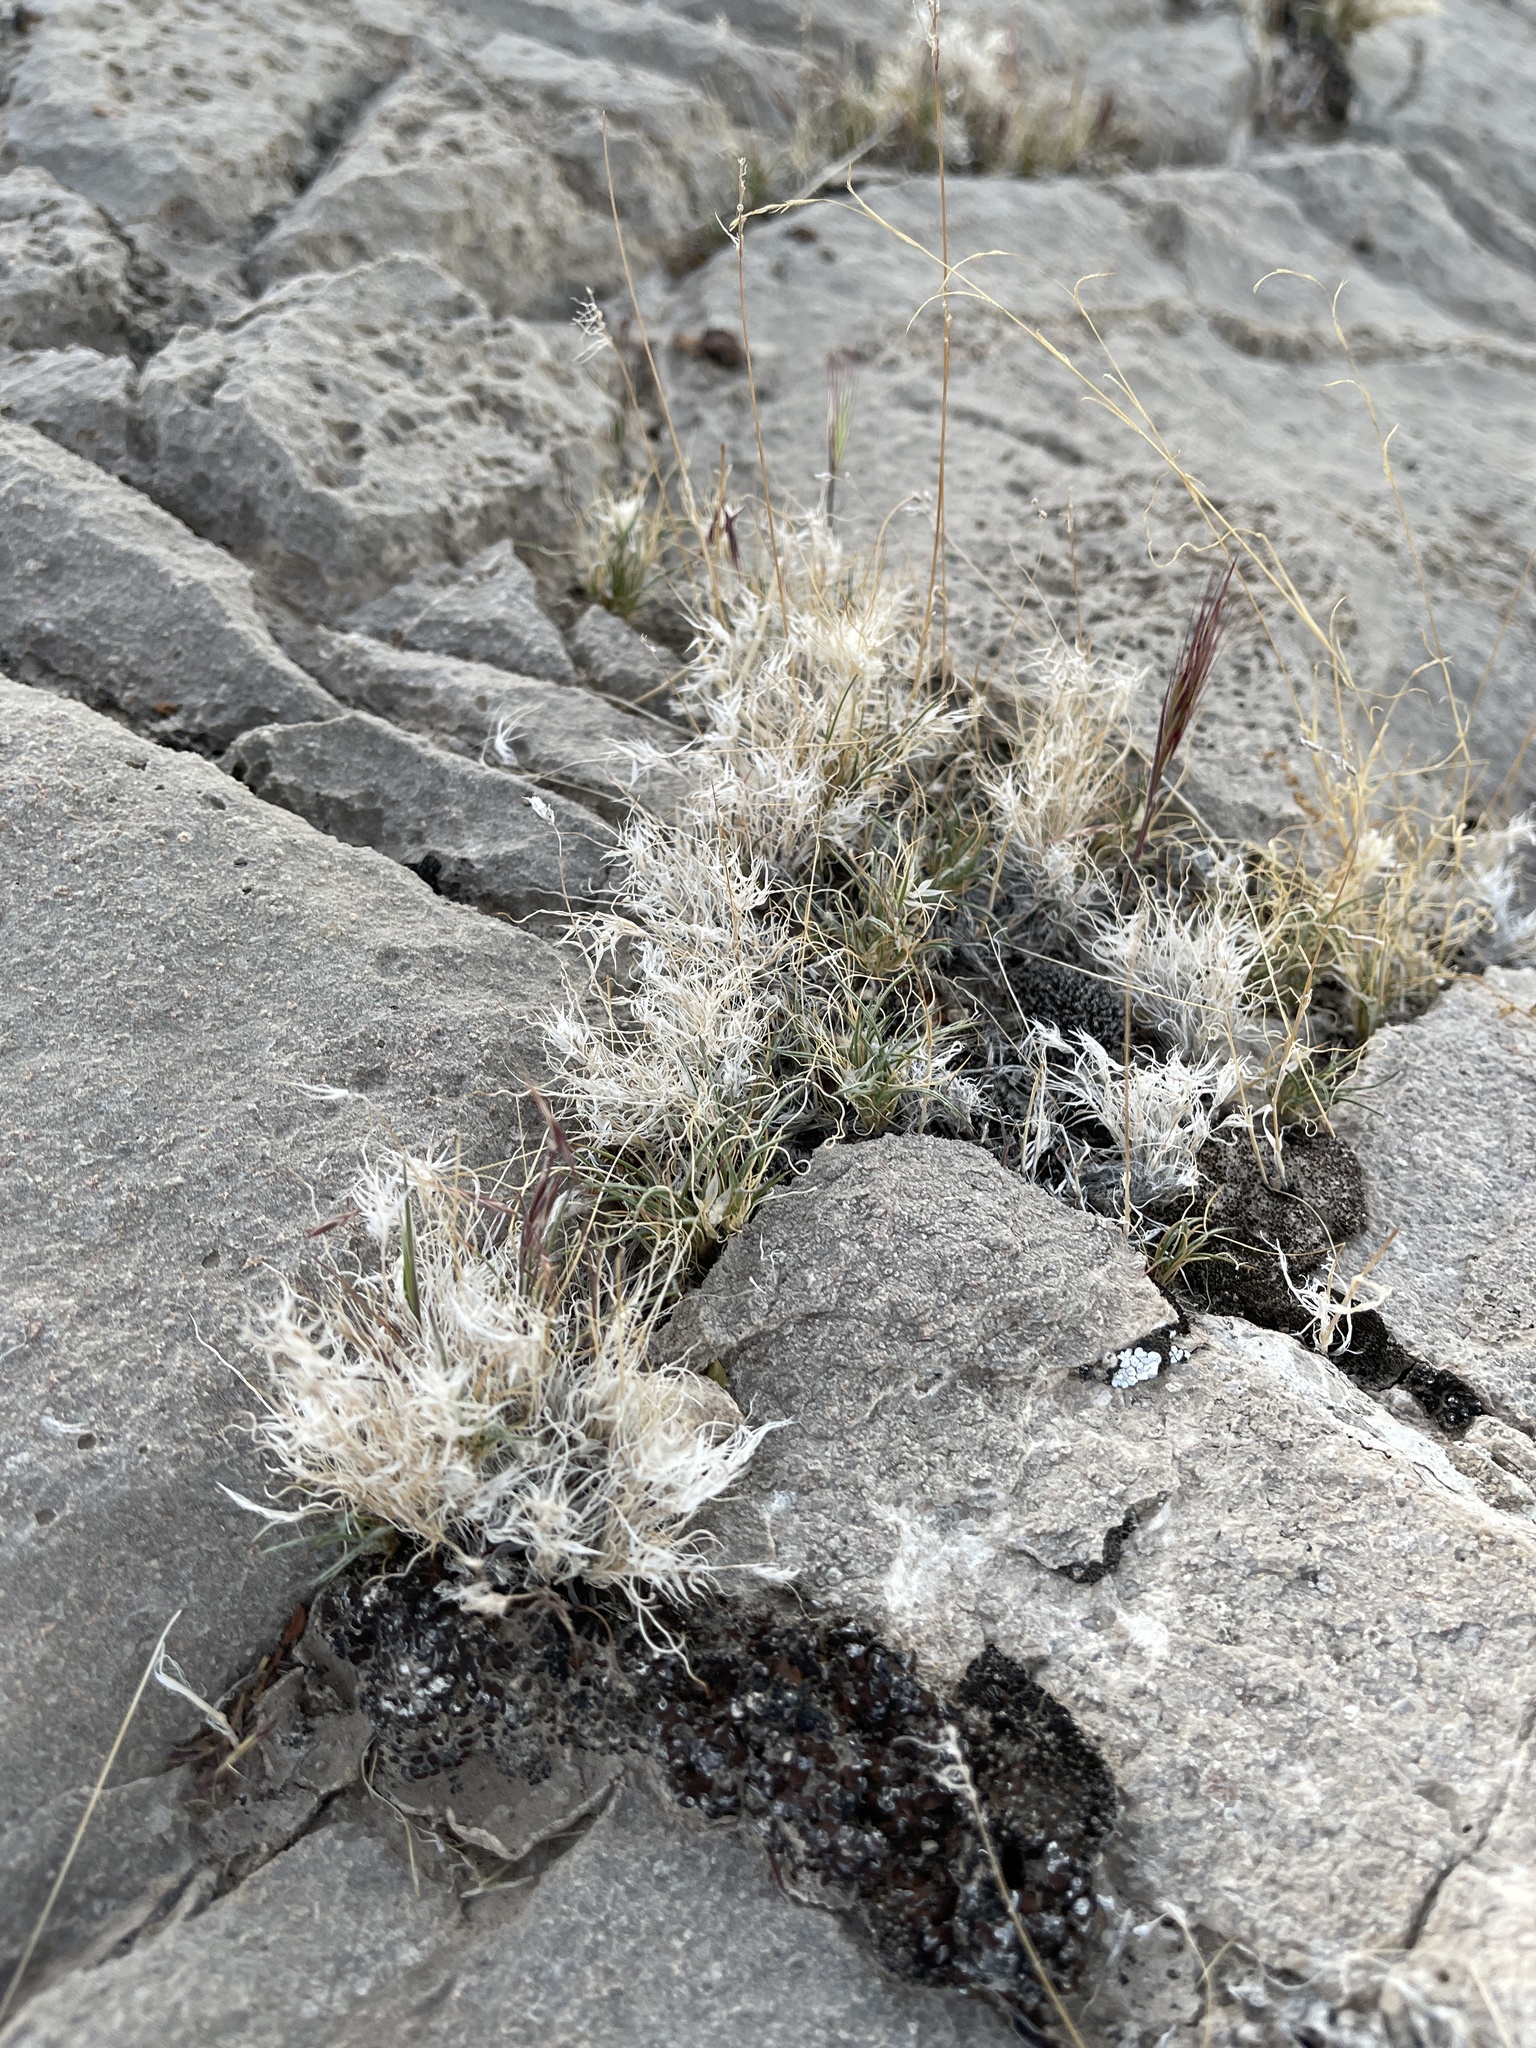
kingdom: Plantae
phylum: Tracheophyta
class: Liliopsida
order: Poales
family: Poaceae
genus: Dasyochloa
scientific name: Dasyochloa pulchella
